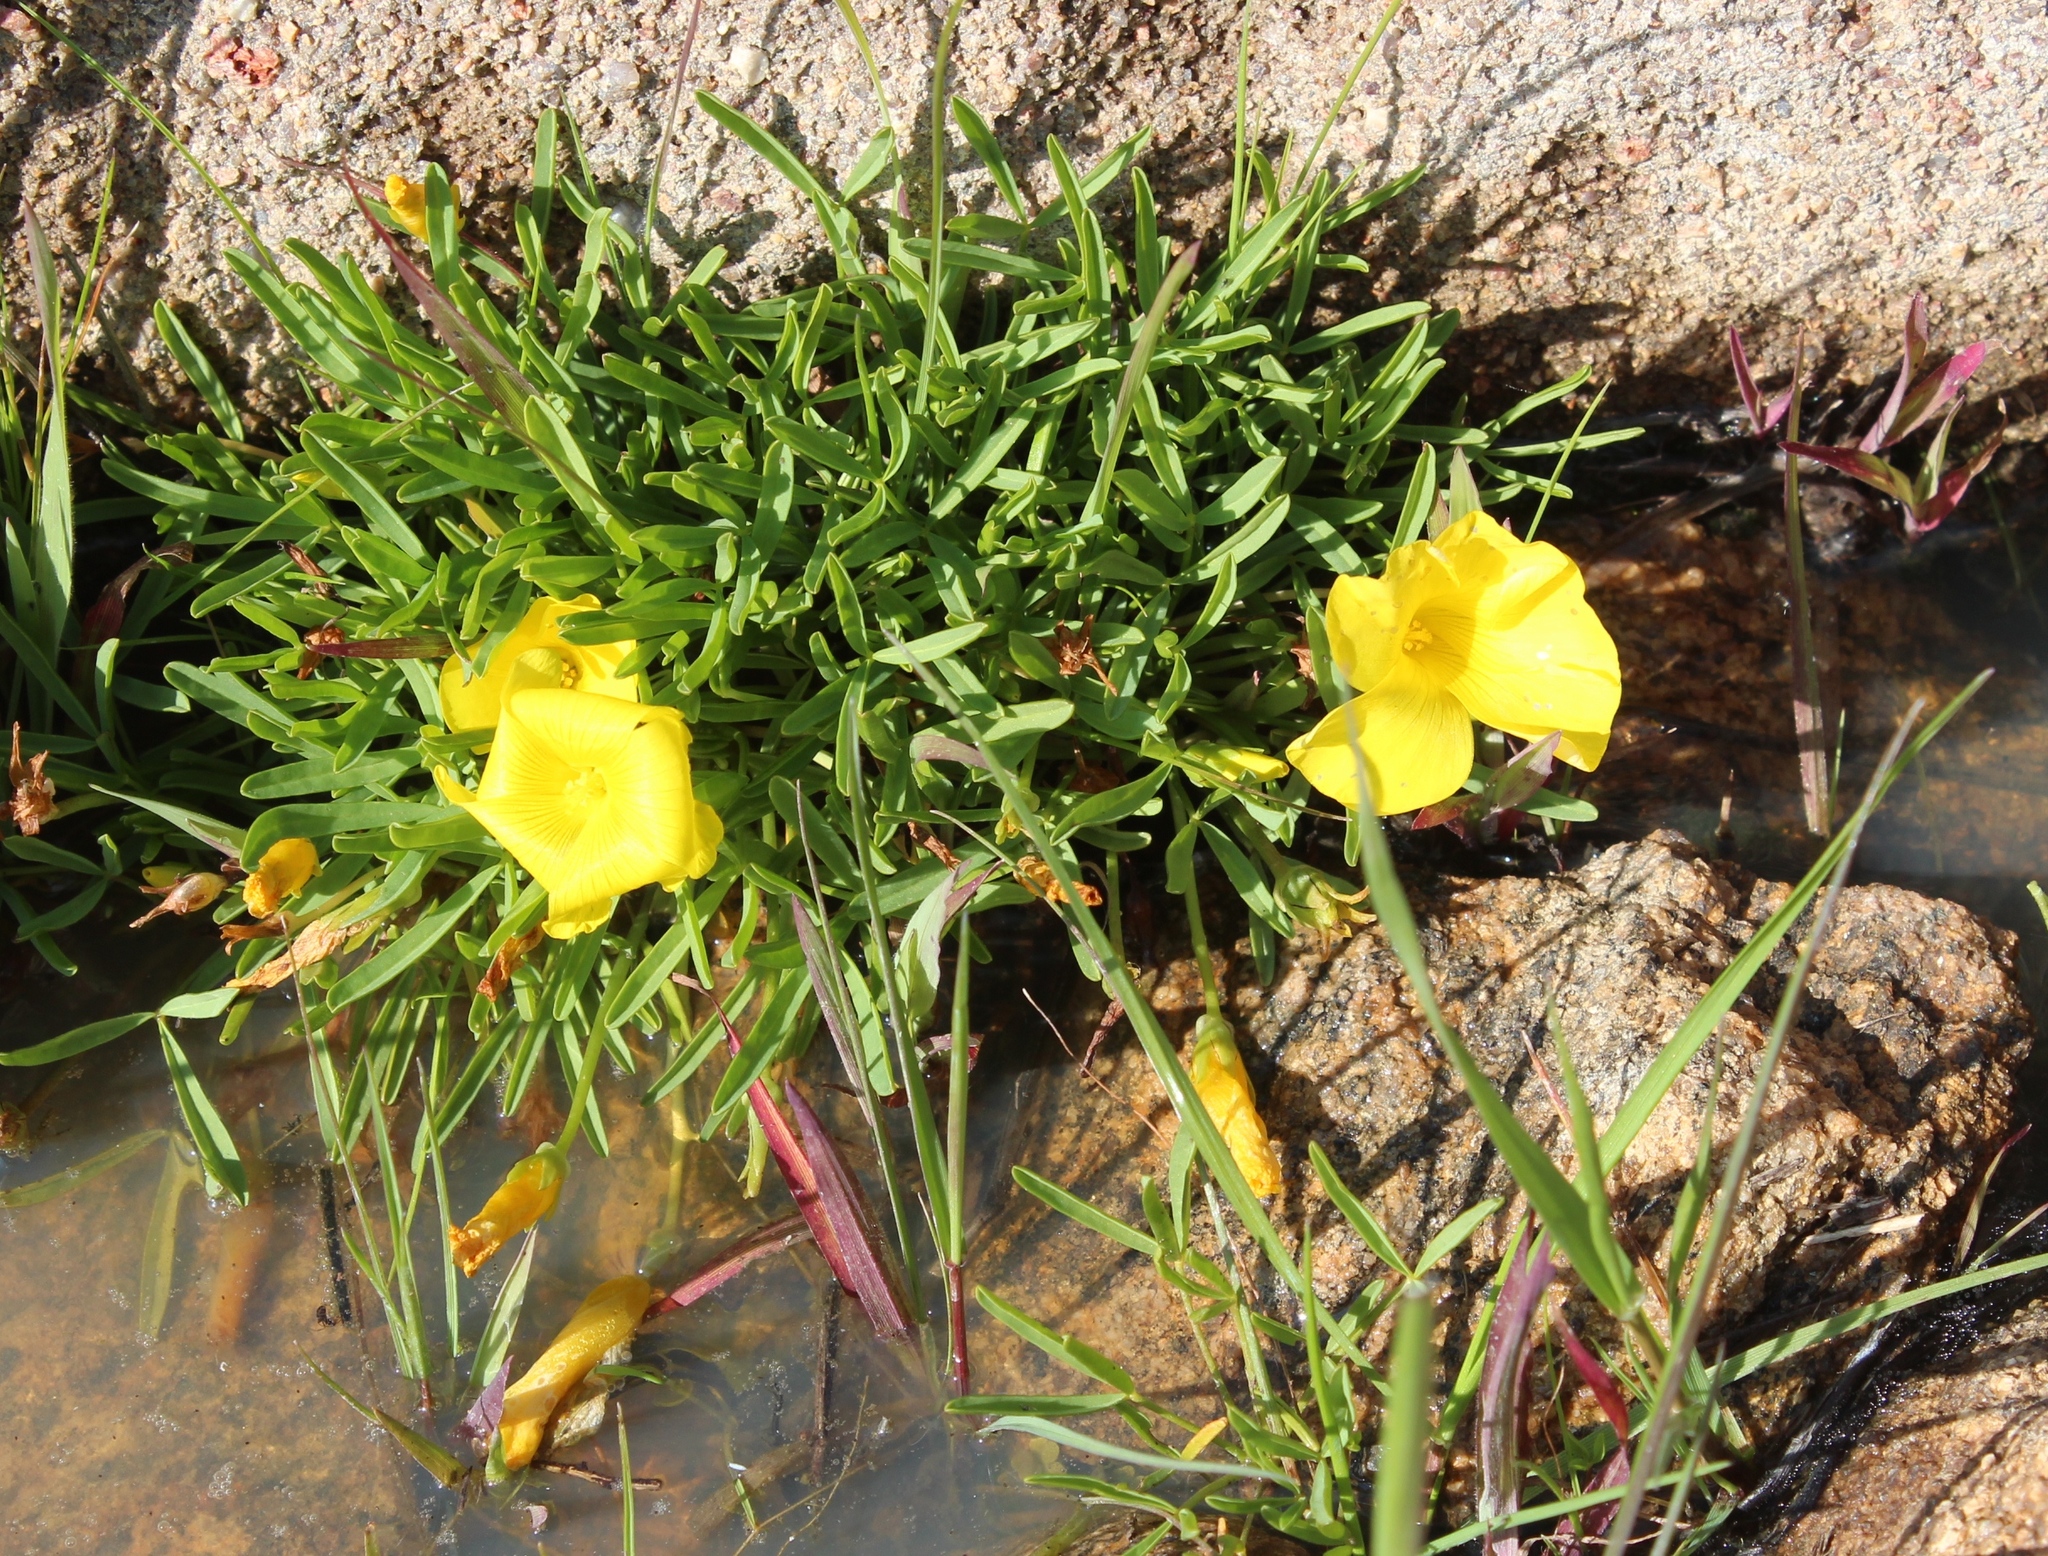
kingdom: Plantae
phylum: Tracheophyta
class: Magnoliopsida
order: Oxalidales
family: Oxalidaceae
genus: Oxalis
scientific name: Oxalis namaquana
